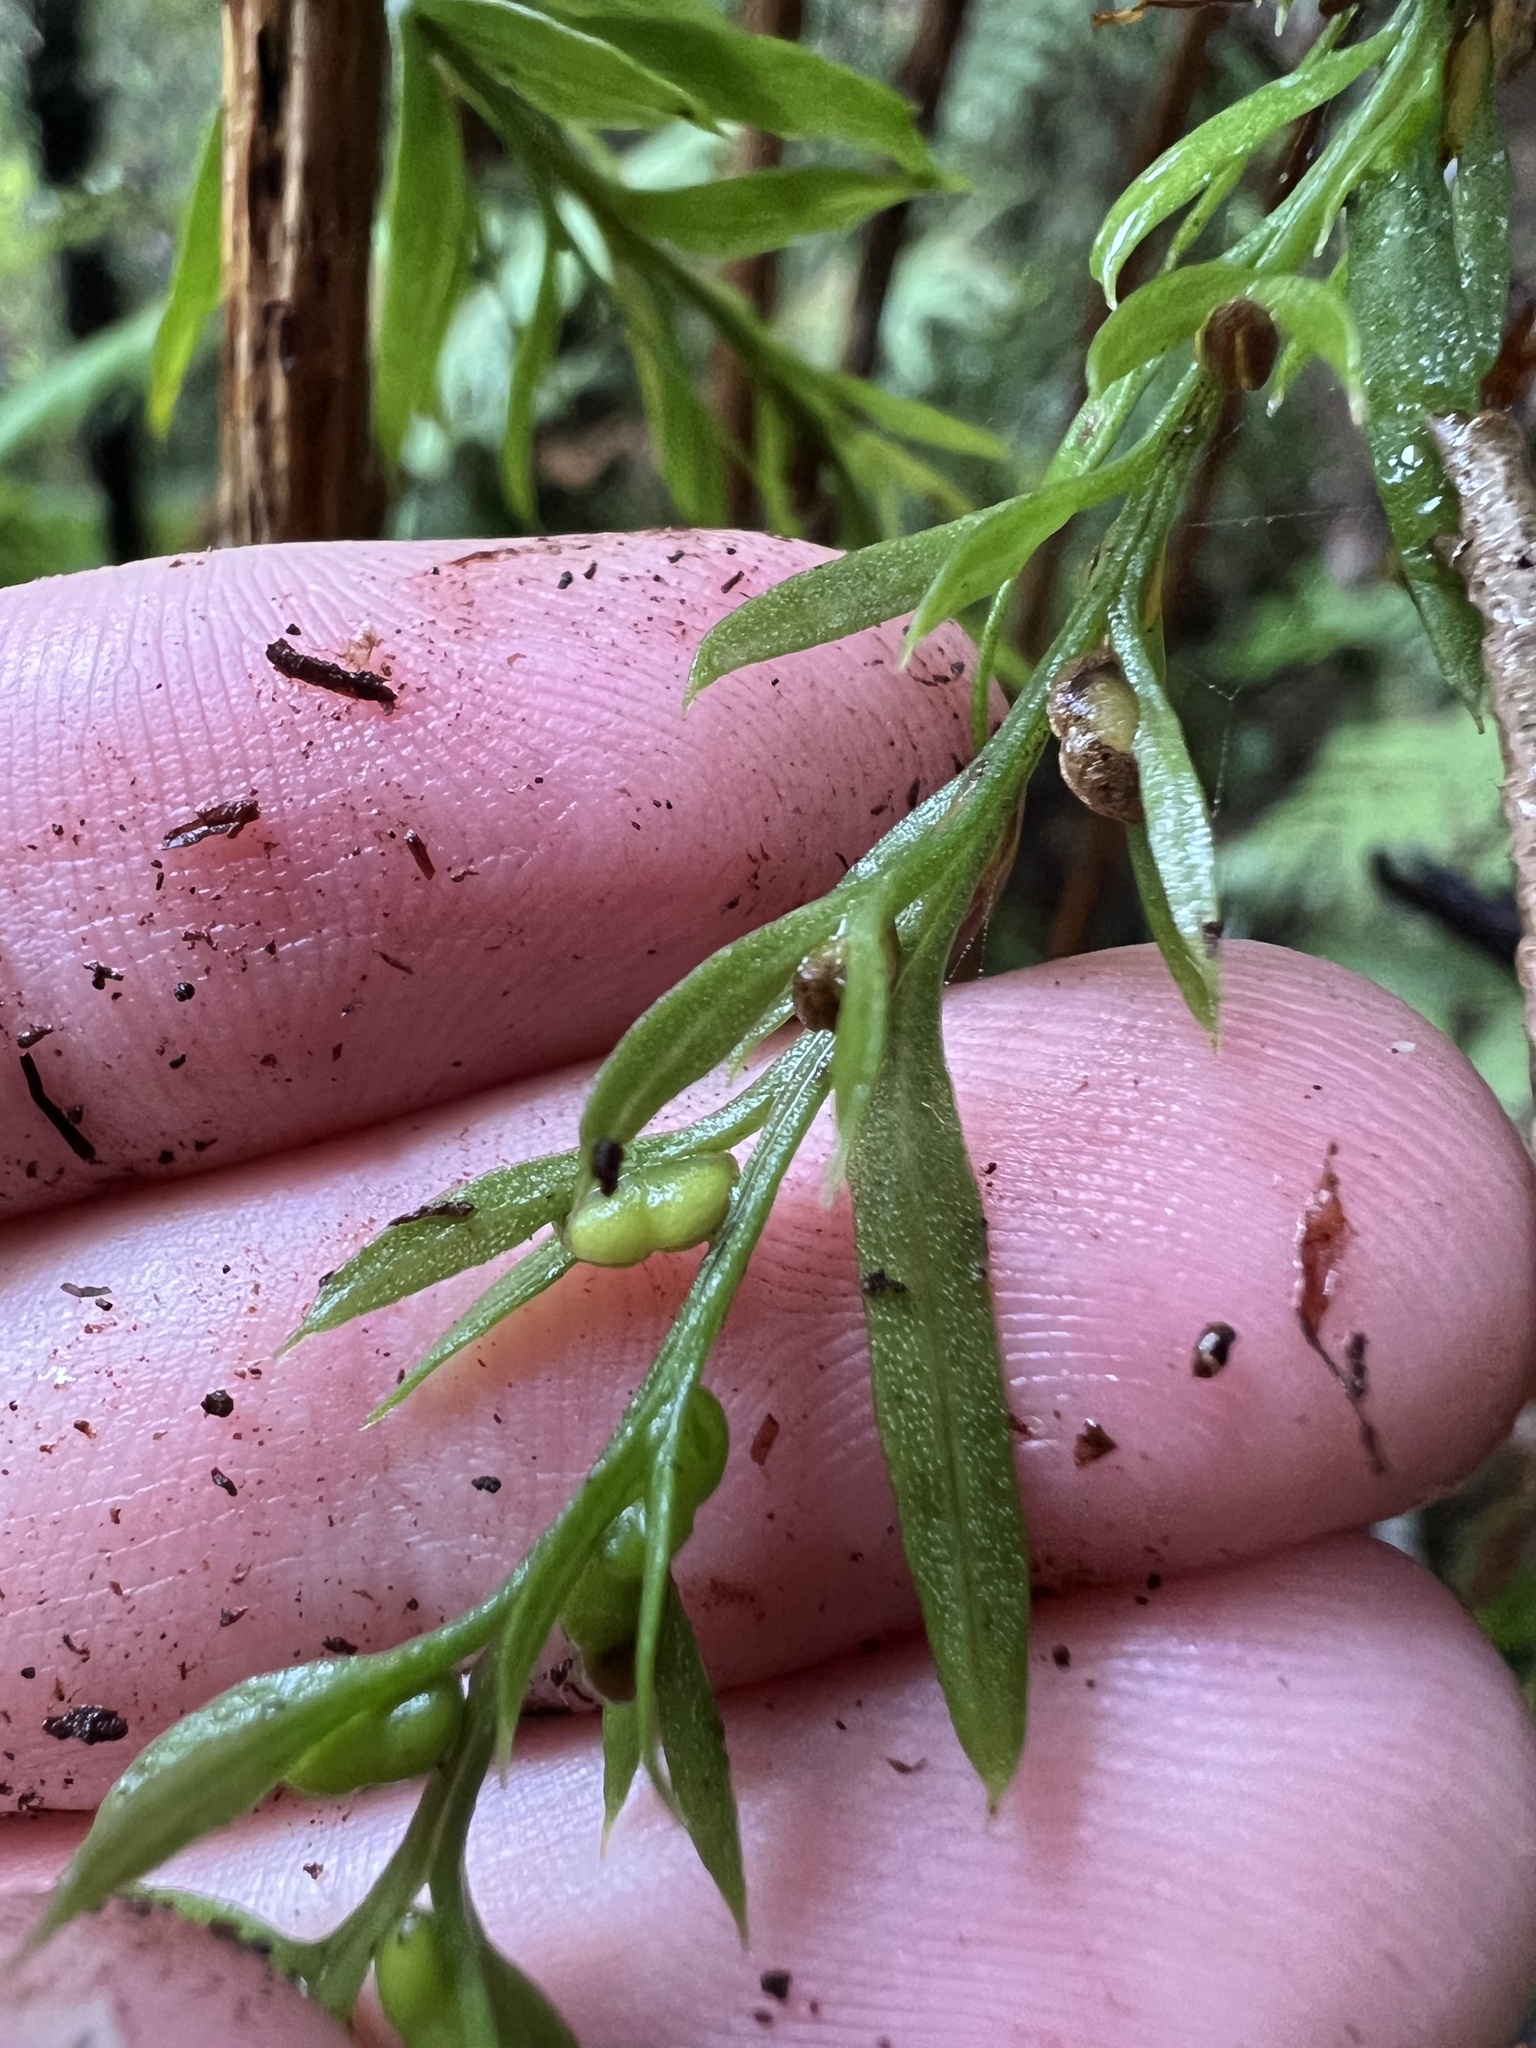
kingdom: Plantae
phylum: Tracheophyta
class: Polypodiopsida
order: Psilotales
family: Psilotaceae
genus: Tmesipteris
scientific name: Tmesipteris elongata
